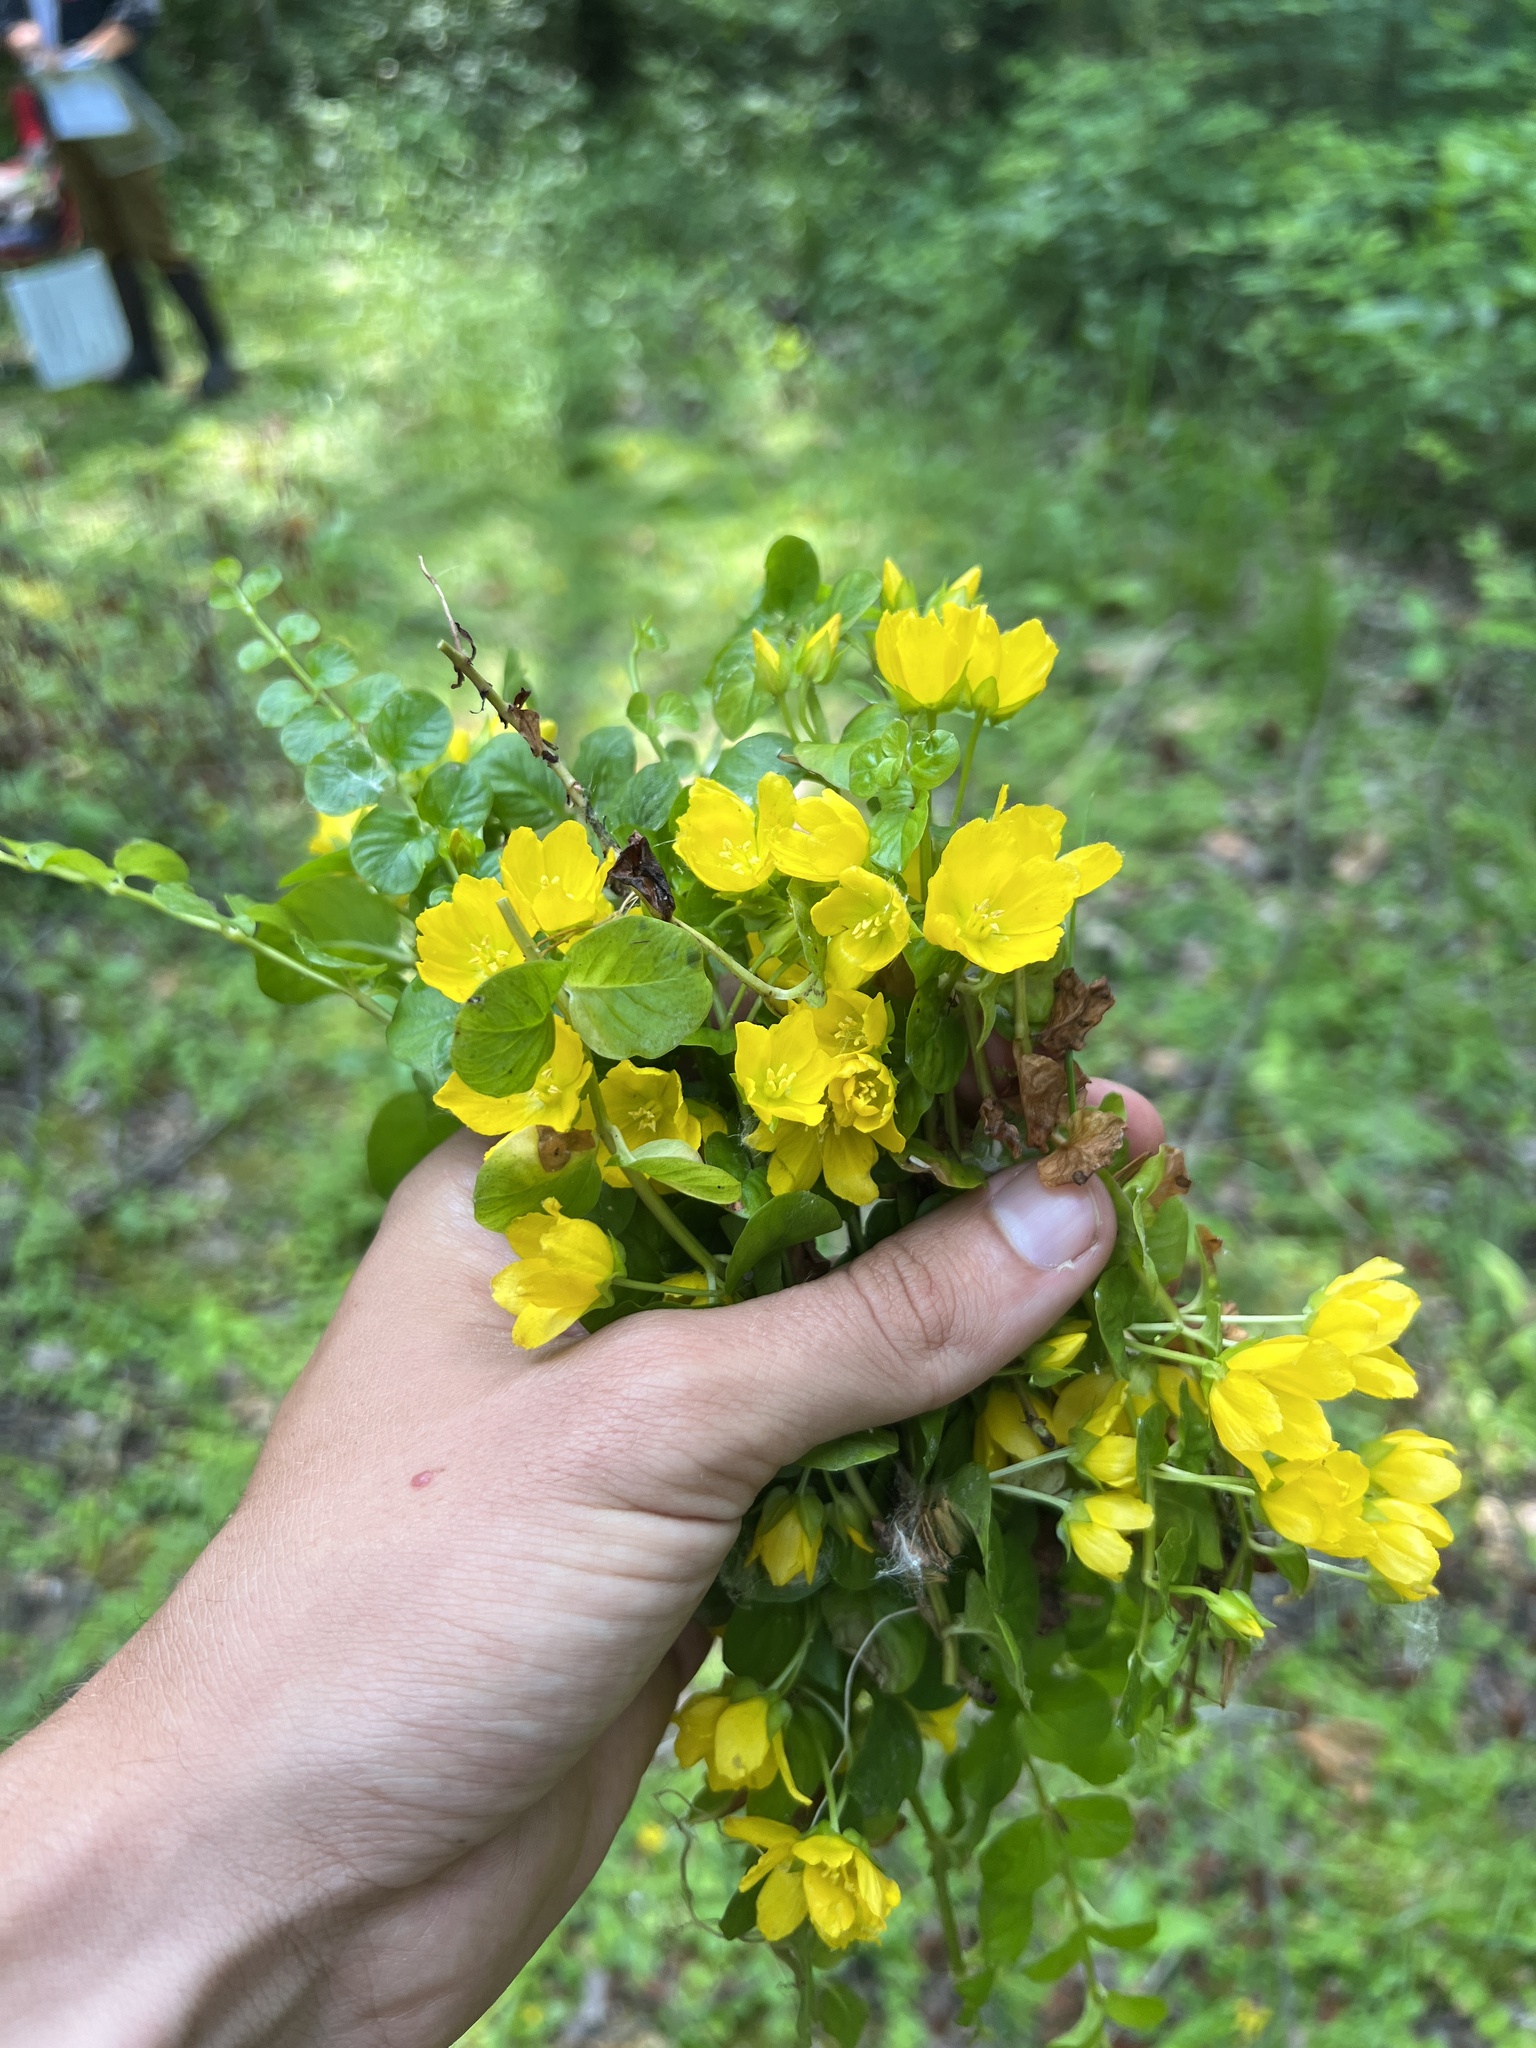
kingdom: Plantae
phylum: Tracheophyta
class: Magnoliopsida
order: Ericales
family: Primulaceae
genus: Lysimachia
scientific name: Lysimachia nummularia
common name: Moneywort
